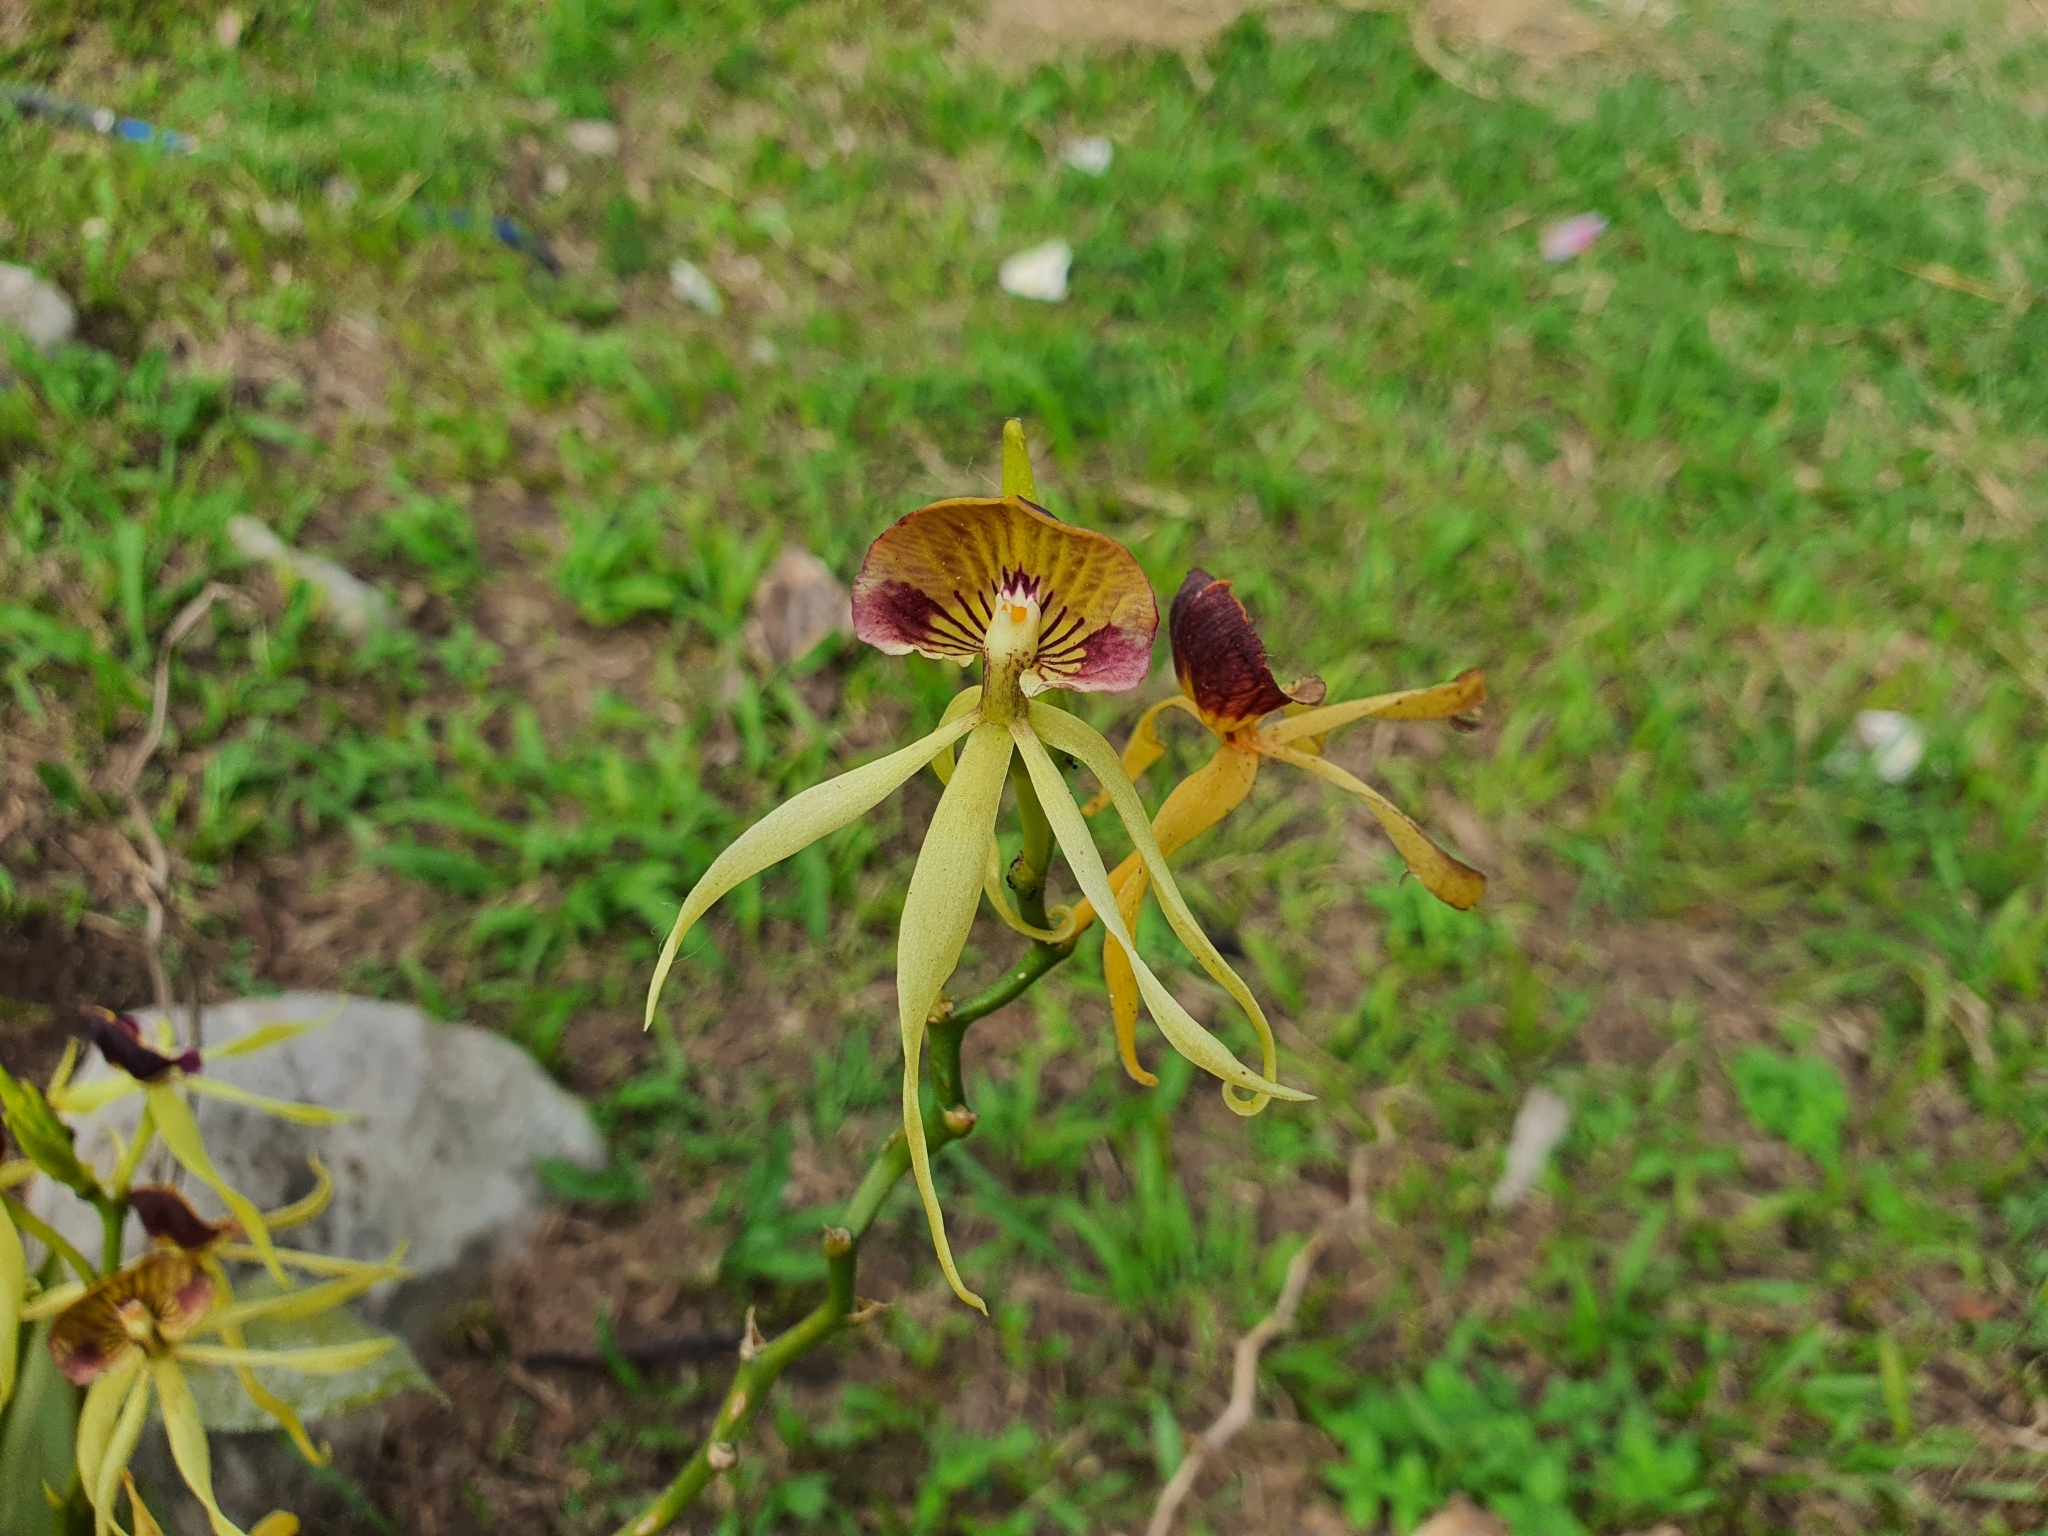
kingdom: Plantae
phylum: Tracheophyta
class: Liliopsida
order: Asparagales
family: Orchidaceae
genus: Prosthechea
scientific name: Prosthechea cochleata
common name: Clamshell orchid
